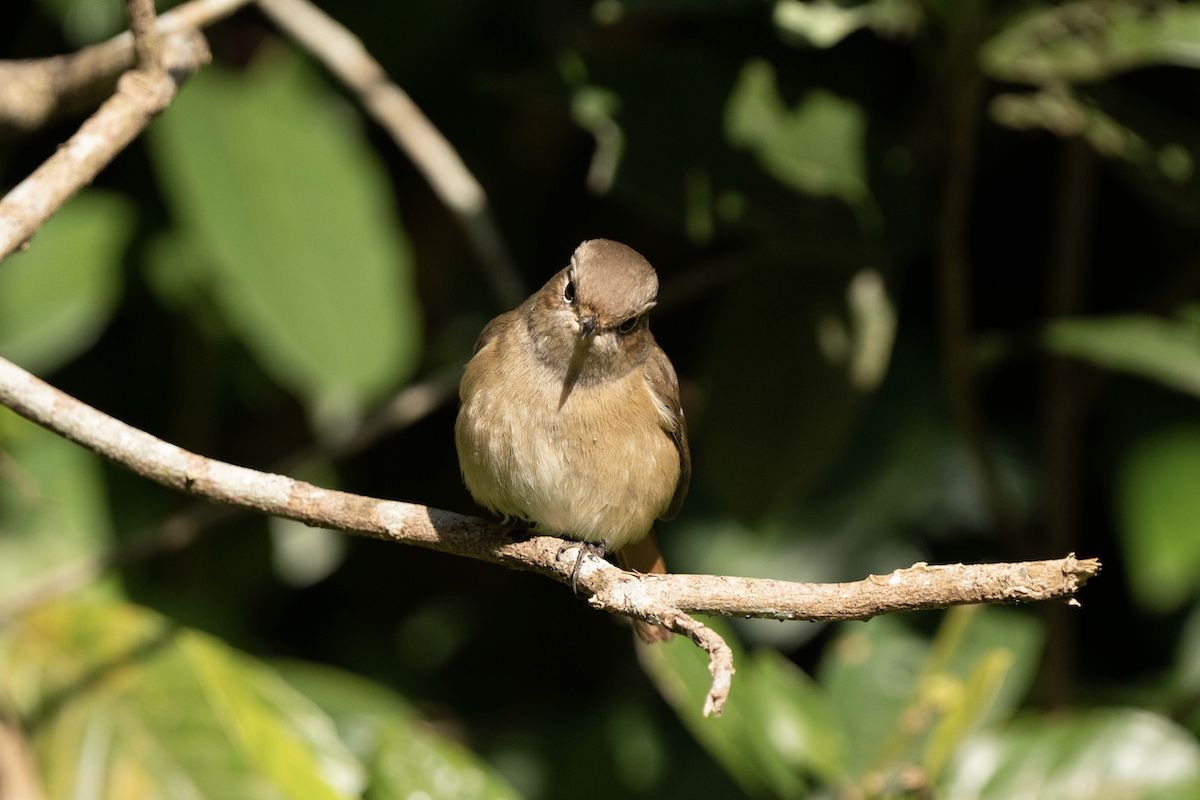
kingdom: Animalia
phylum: Chordata
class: Aves
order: Passeriformes
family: Muscicapidae
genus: Phoenicurus
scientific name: Phoenicurus auroreus
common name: Daurian redstart
